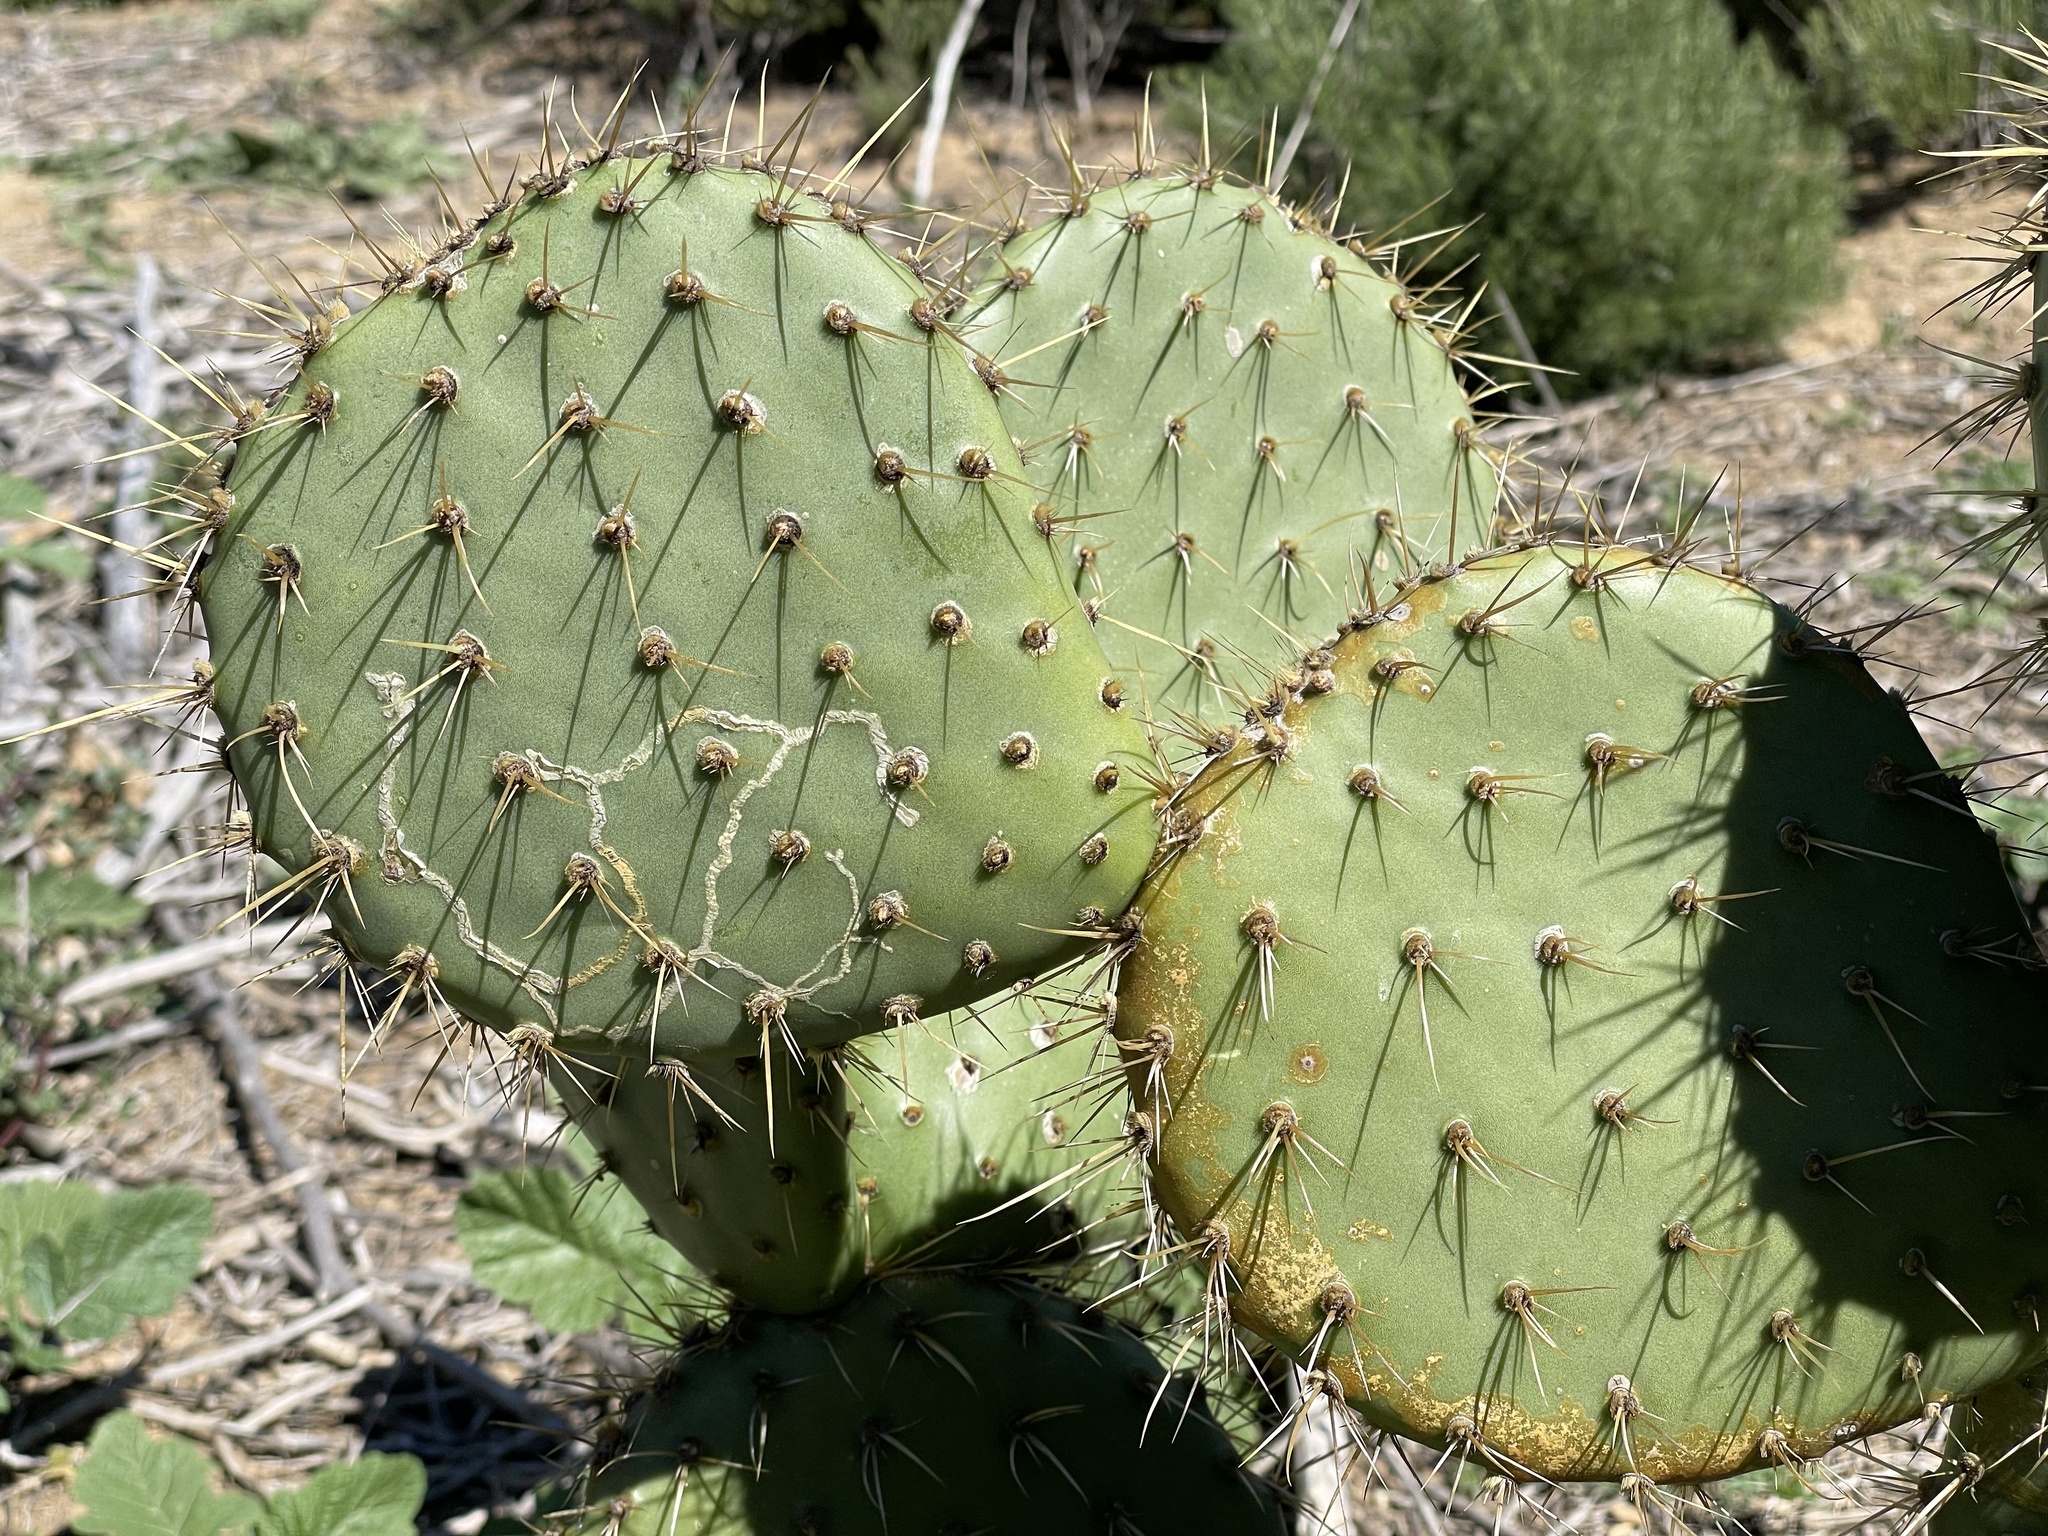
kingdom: Plantae
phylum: Tracheophyta
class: Magnoliopsida
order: Caryophyllales
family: Cactaceae
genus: Opuntia
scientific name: Opuntia oricola
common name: Chaparral prickly-pear
